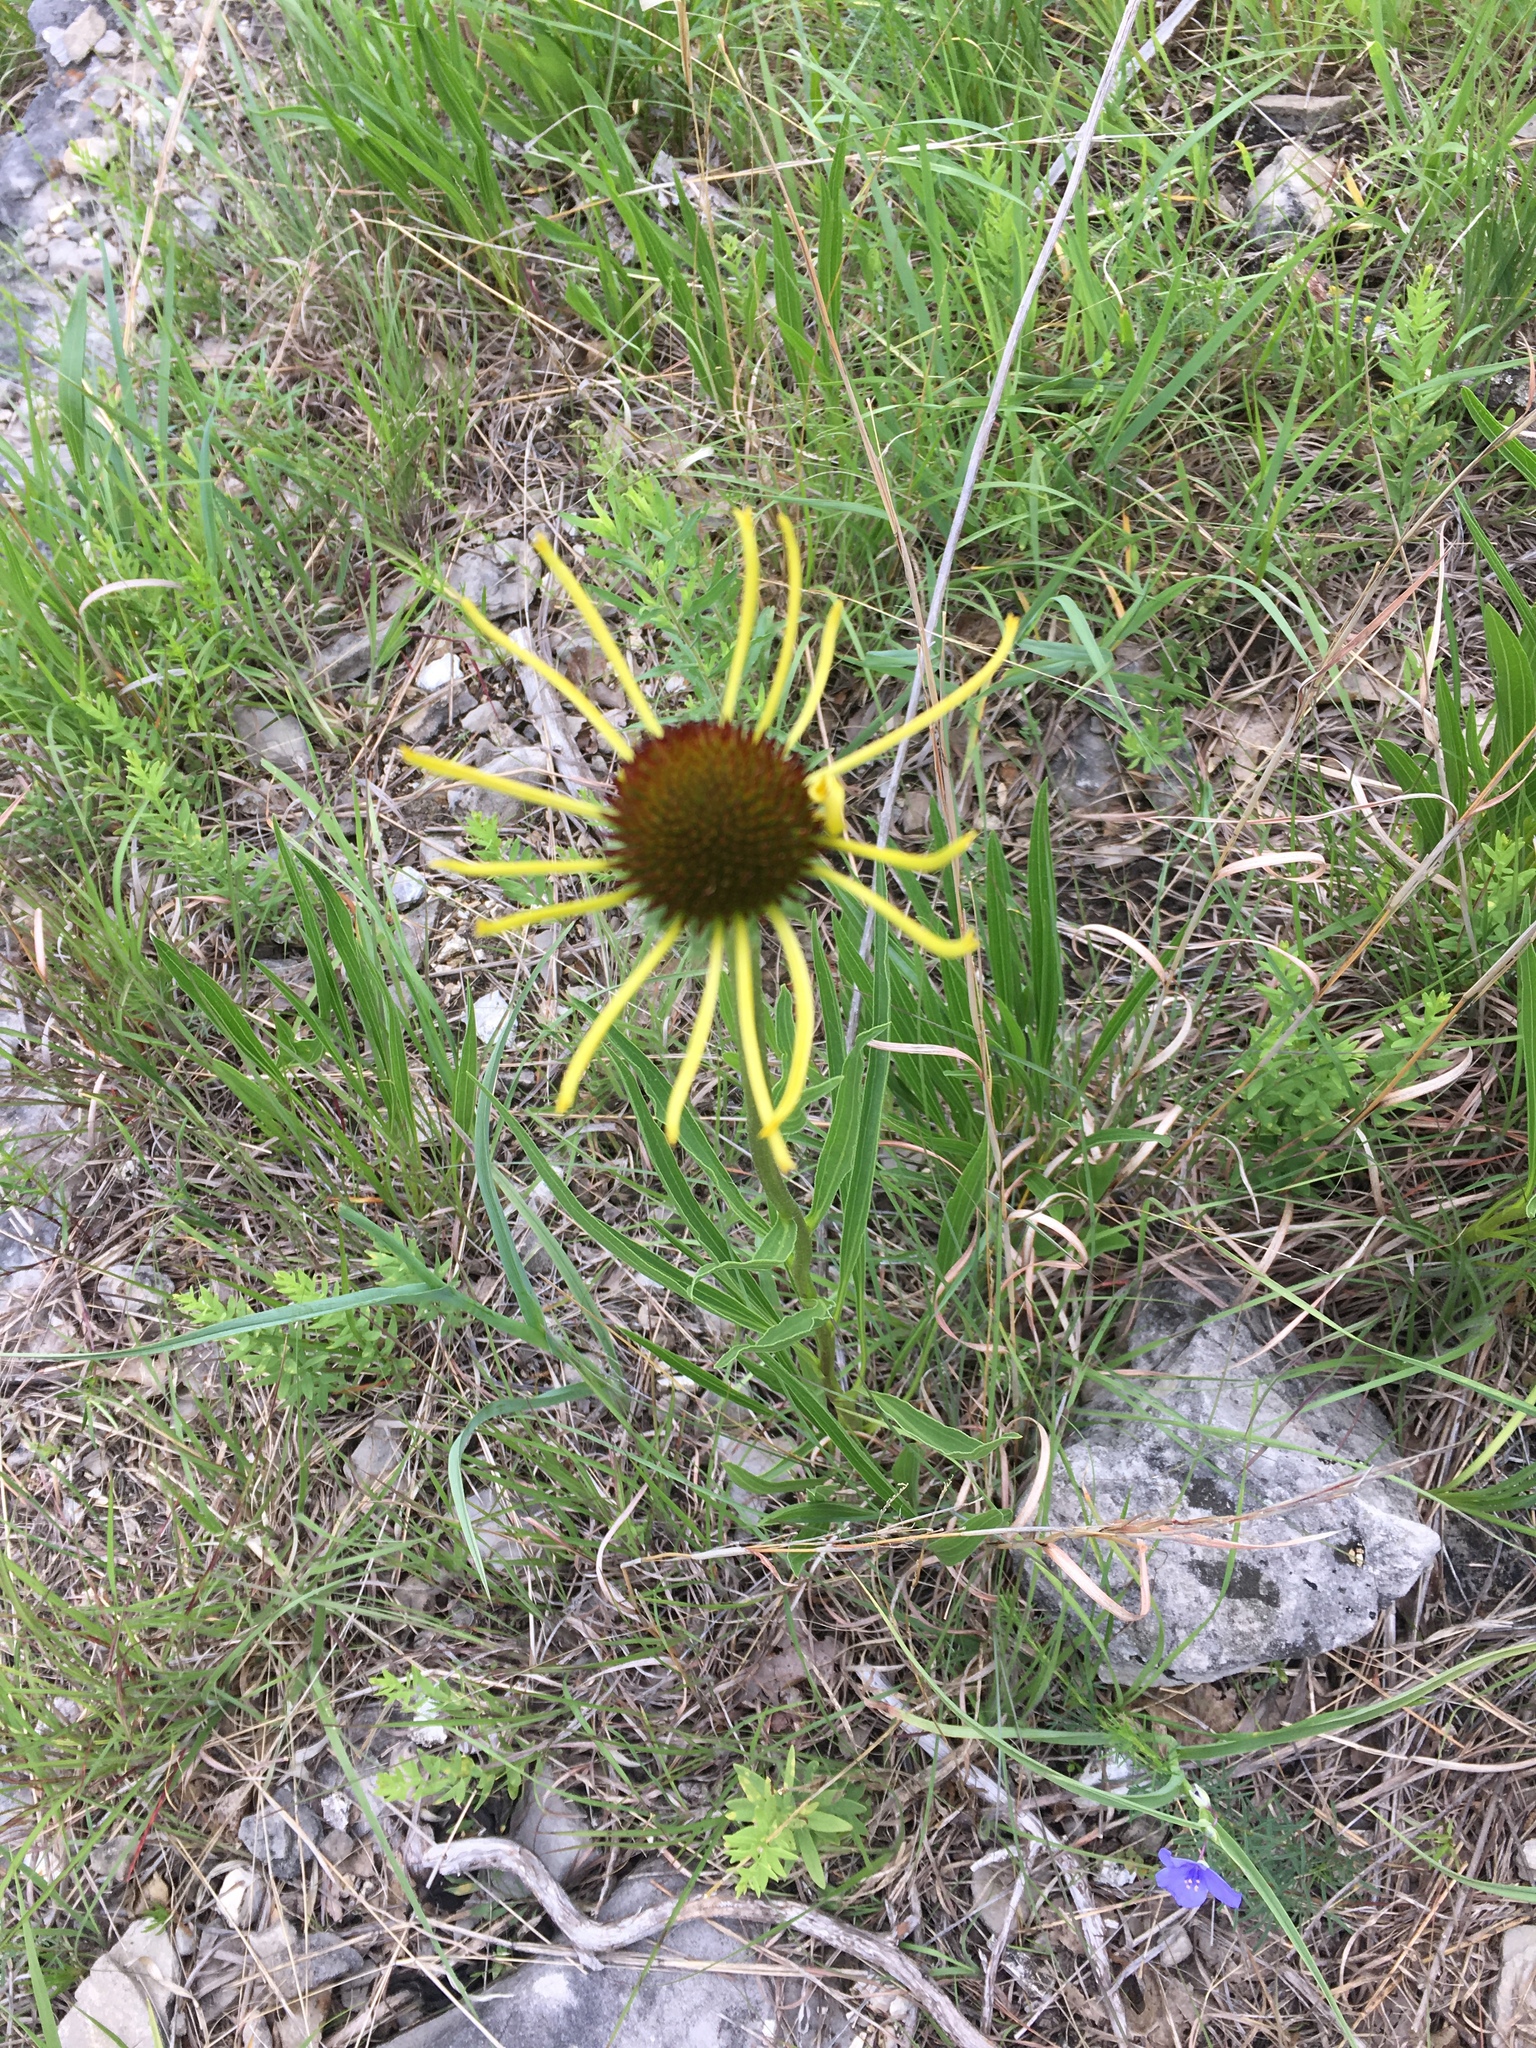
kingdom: Plantae
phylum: Tracheophyta
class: Magnoliopsida
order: Asterales
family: Asteraceae
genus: Echinacea
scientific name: Echinacea paradoxa
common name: Bush's purple-coneflower
